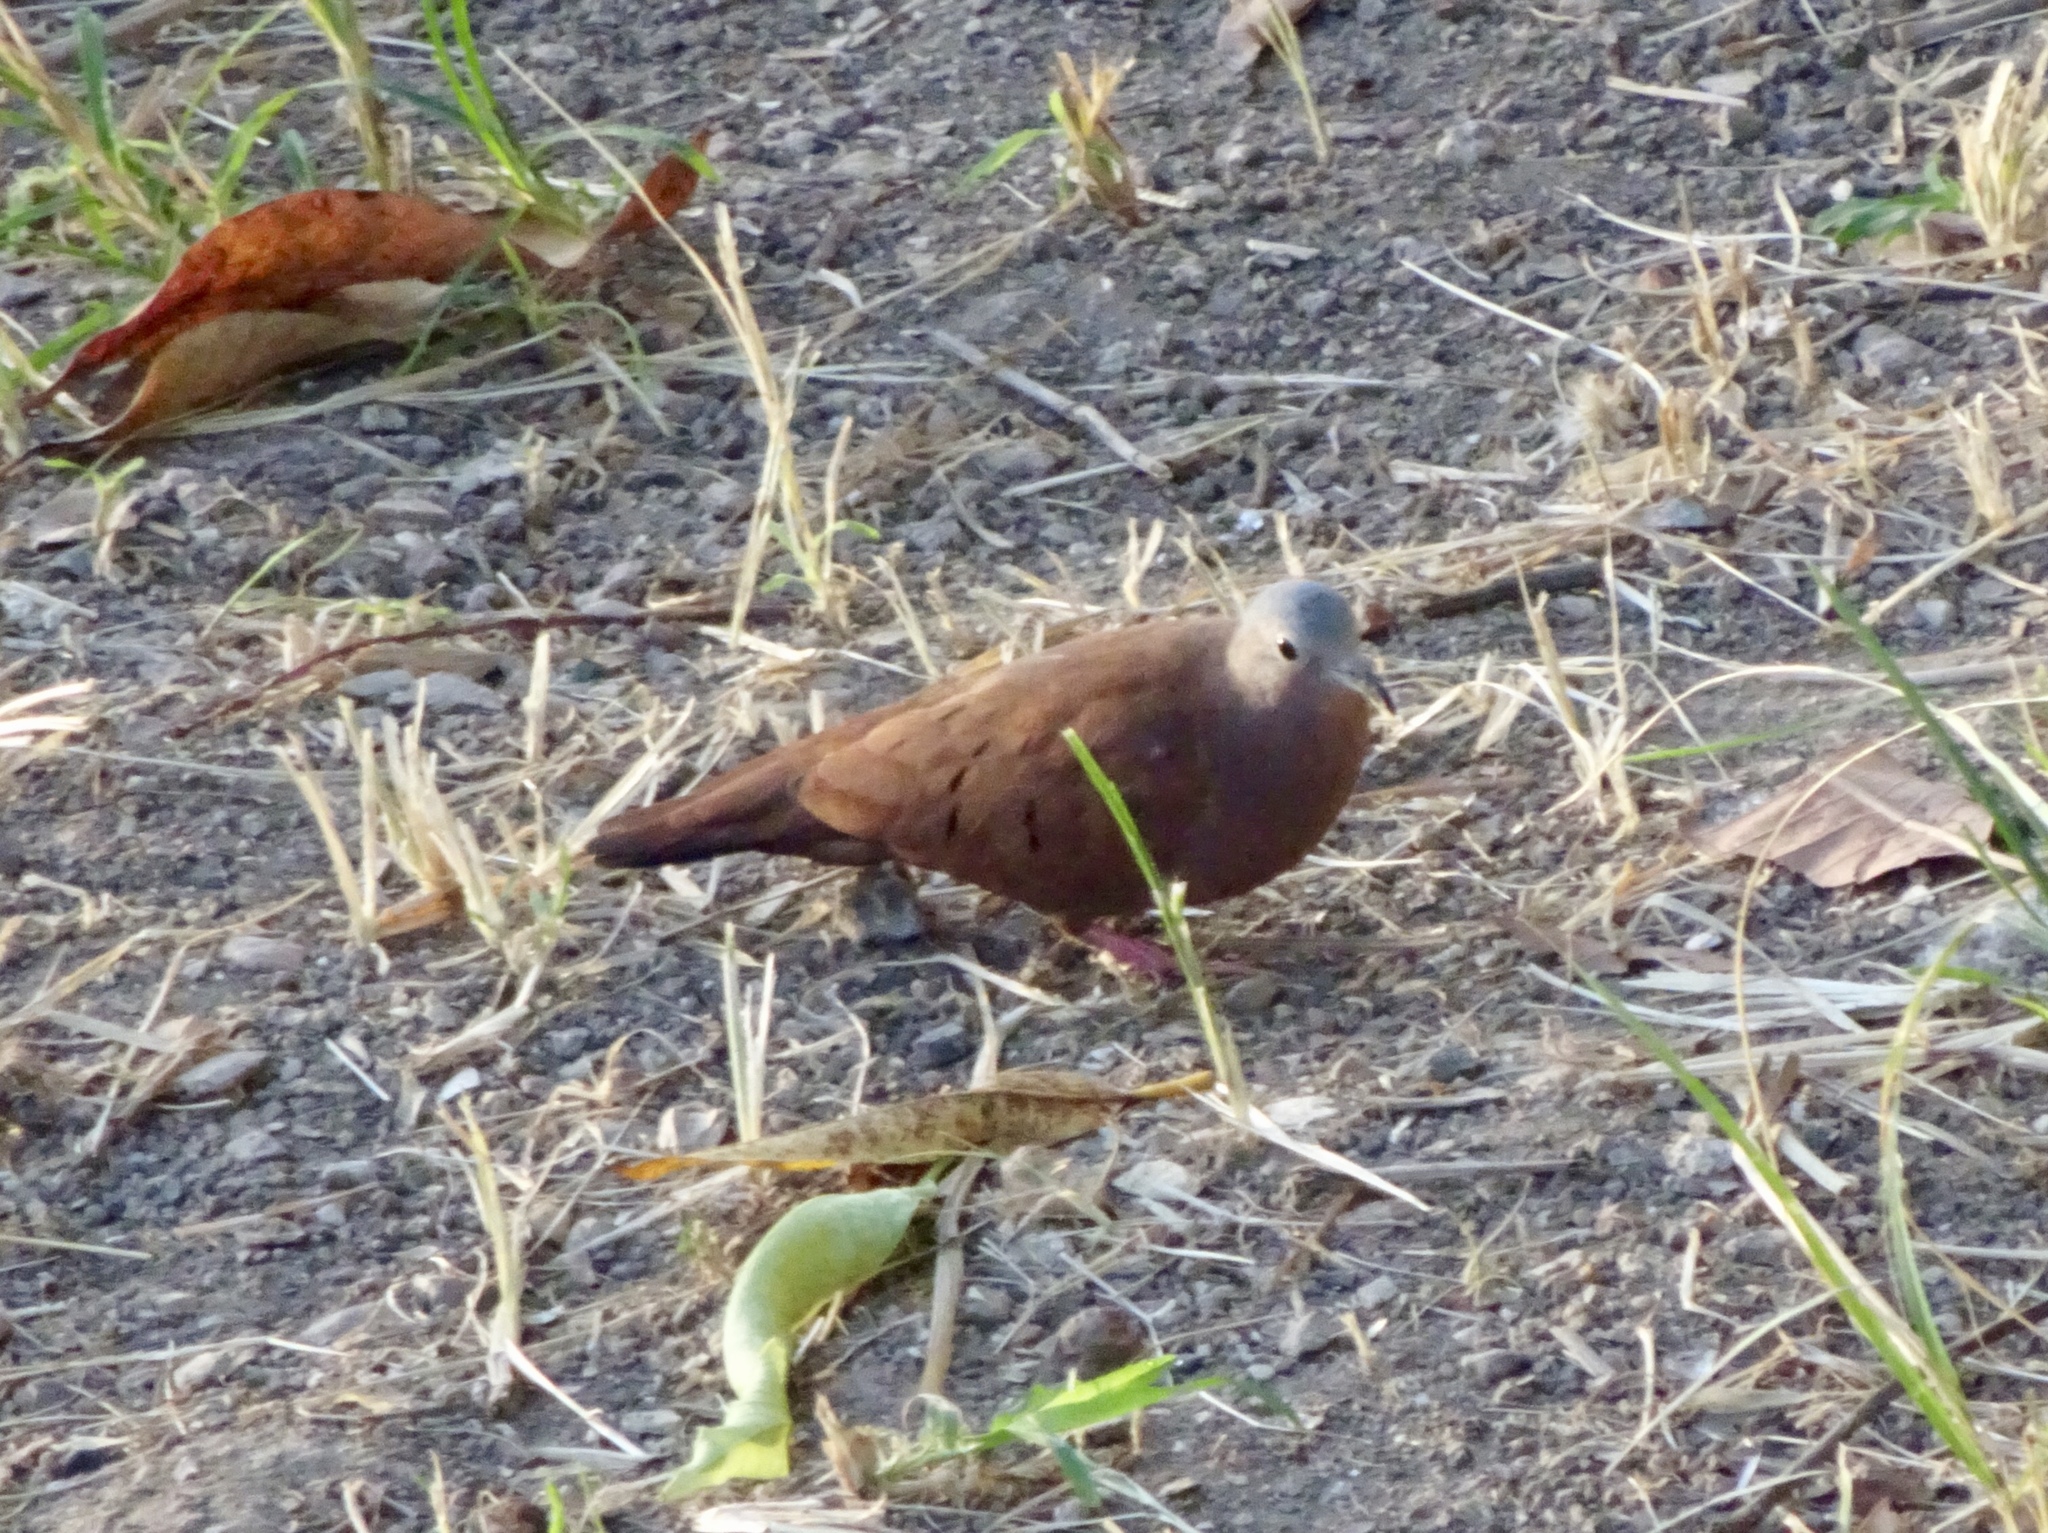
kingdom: Animalia
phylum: Chordata
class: Aves
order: Columbiformes
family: Columbidae
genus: Columbina
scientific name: Columbina talpacoti
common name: Ruddy ground dove
